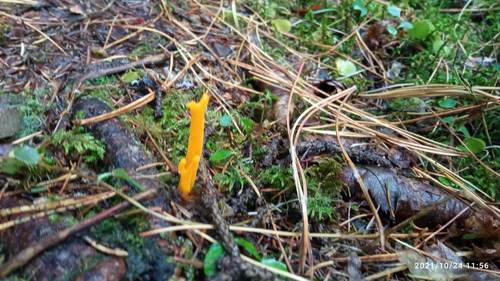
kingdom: Fungi
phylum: Basidiomycota
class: Dacrymycetes
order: Dacrymycetales
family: Dacrymycetaceae
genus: Calocera
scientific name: Calocera viscosa
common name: Yellow stagshorn
